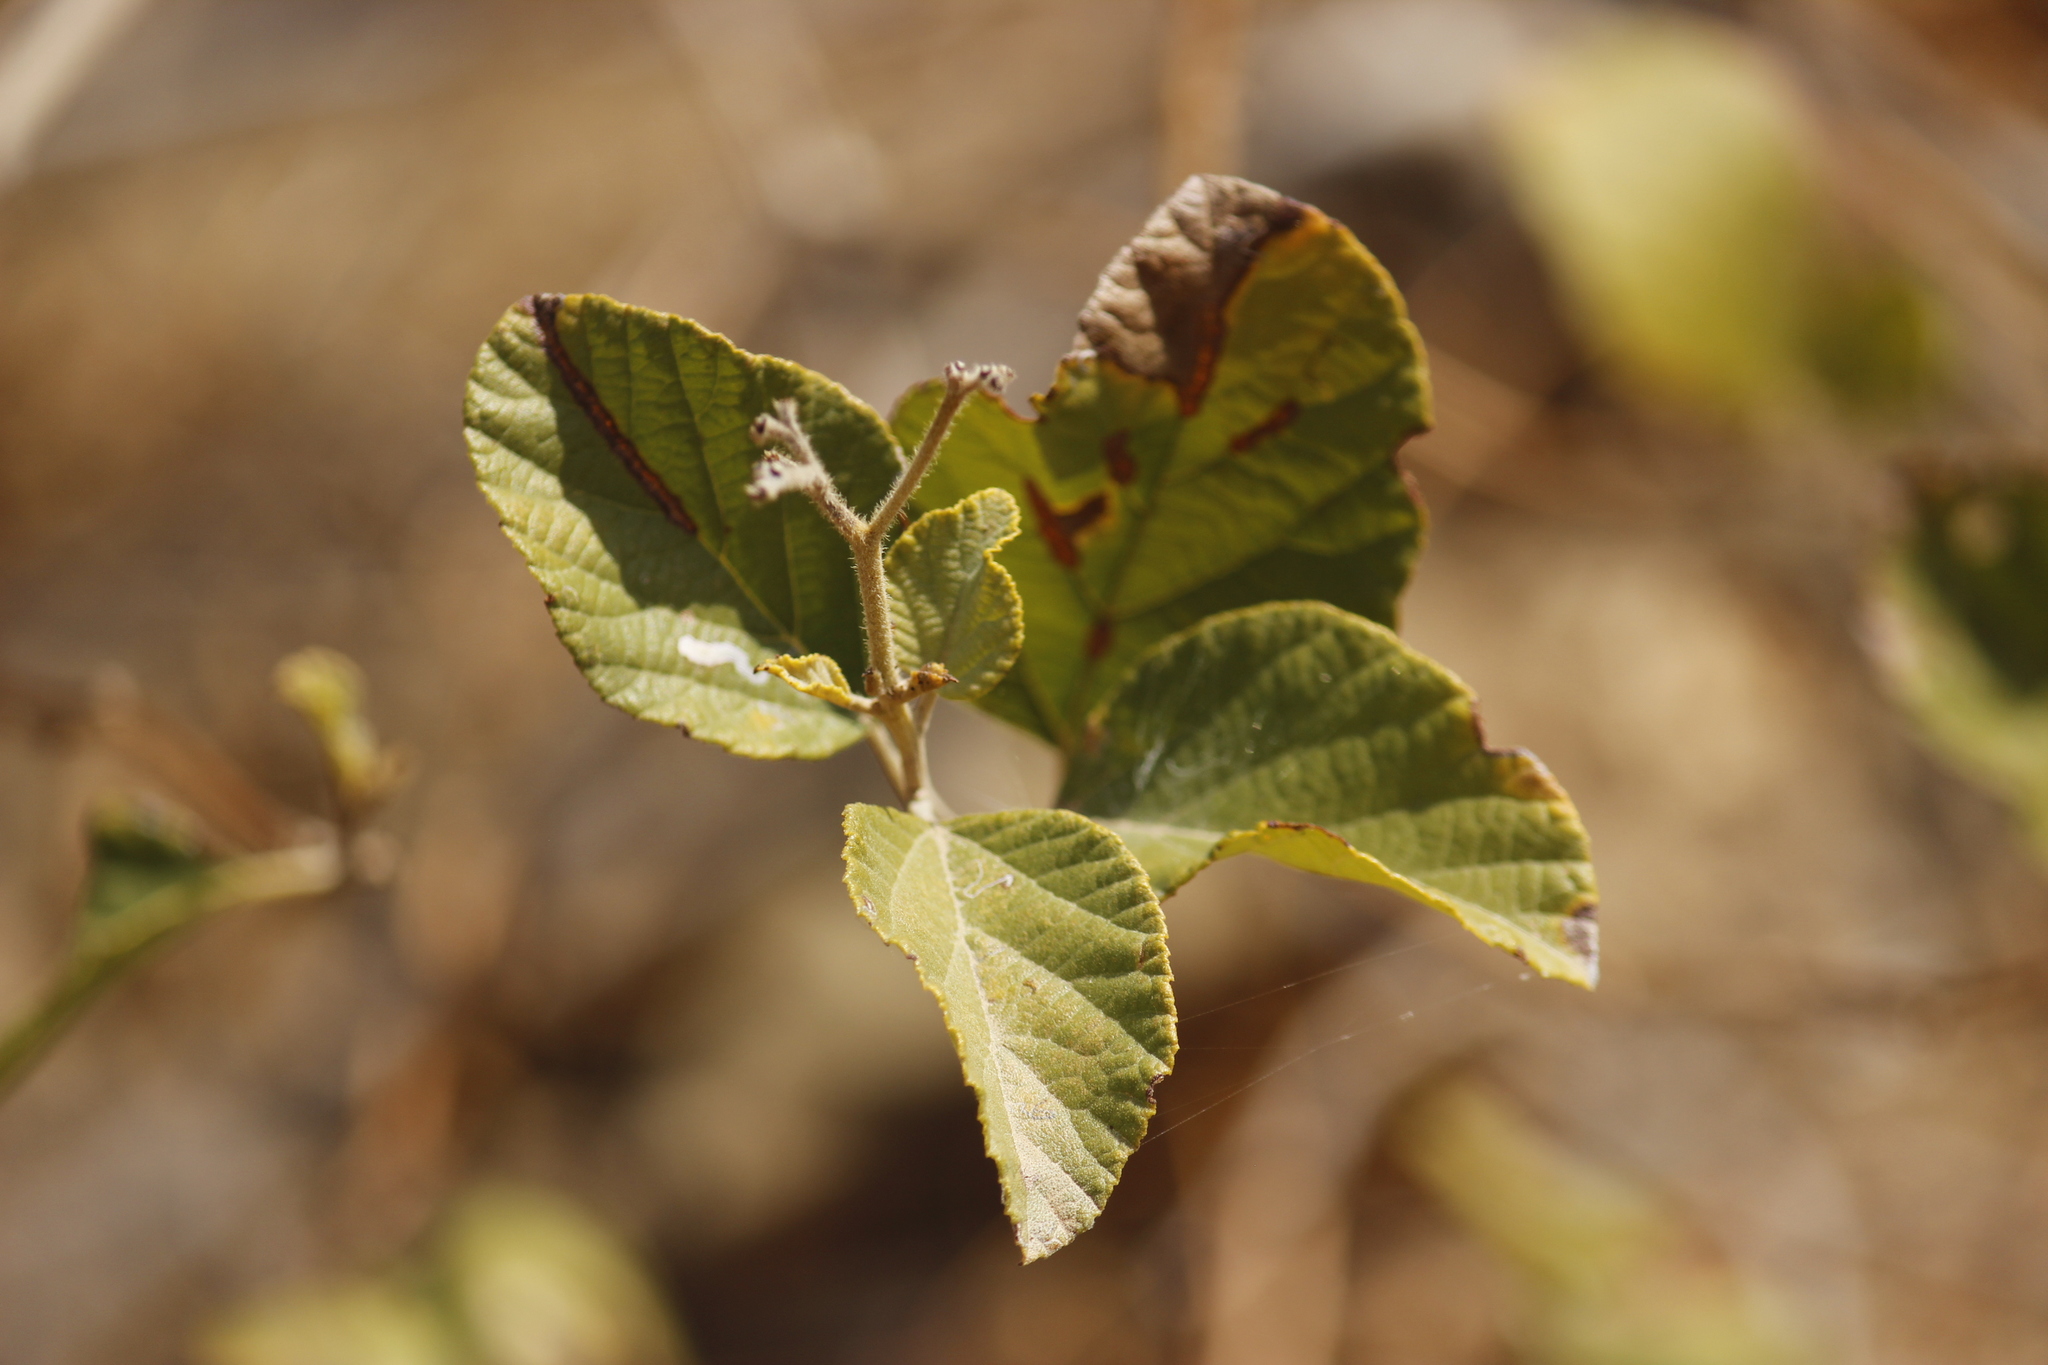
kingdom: Plantae
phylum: Tracheophyta
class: Magnoliopsida
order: Boraginales
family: Cordiaceae
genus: Cordia
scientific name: Cordia lutea
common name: Yellow geiger
